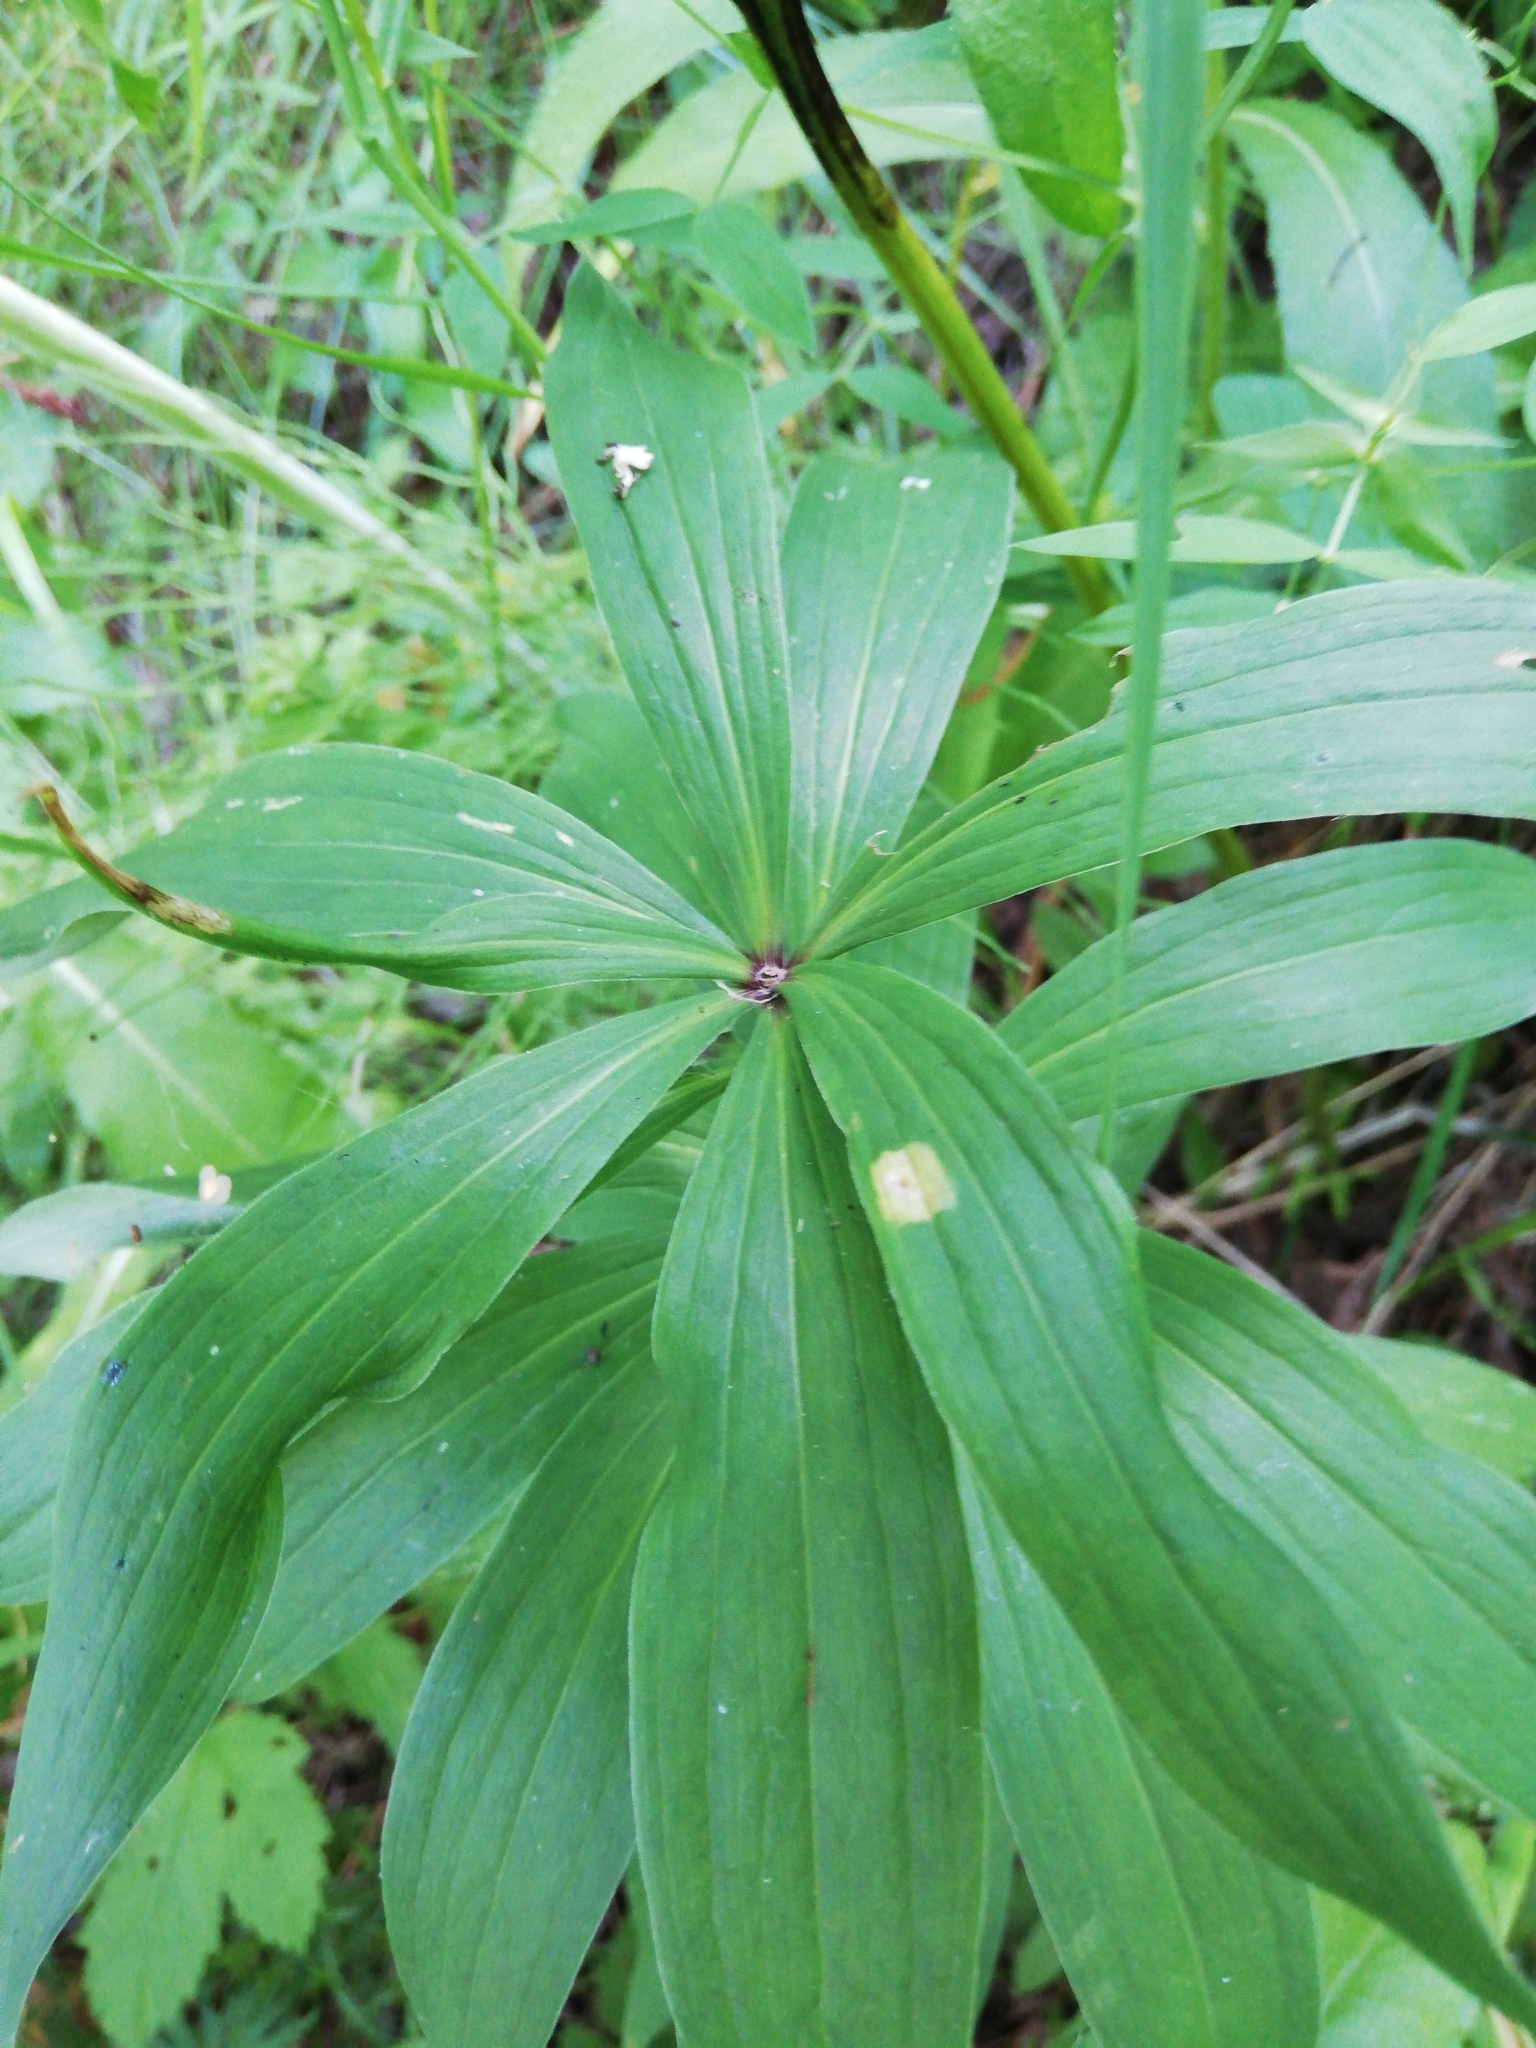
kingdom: Plantae
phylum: Tracheophyta
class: Liliopsida
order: Liliales
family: Liliaceae
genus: Lilium
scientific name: Lilium martagon
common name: Martagon lily
